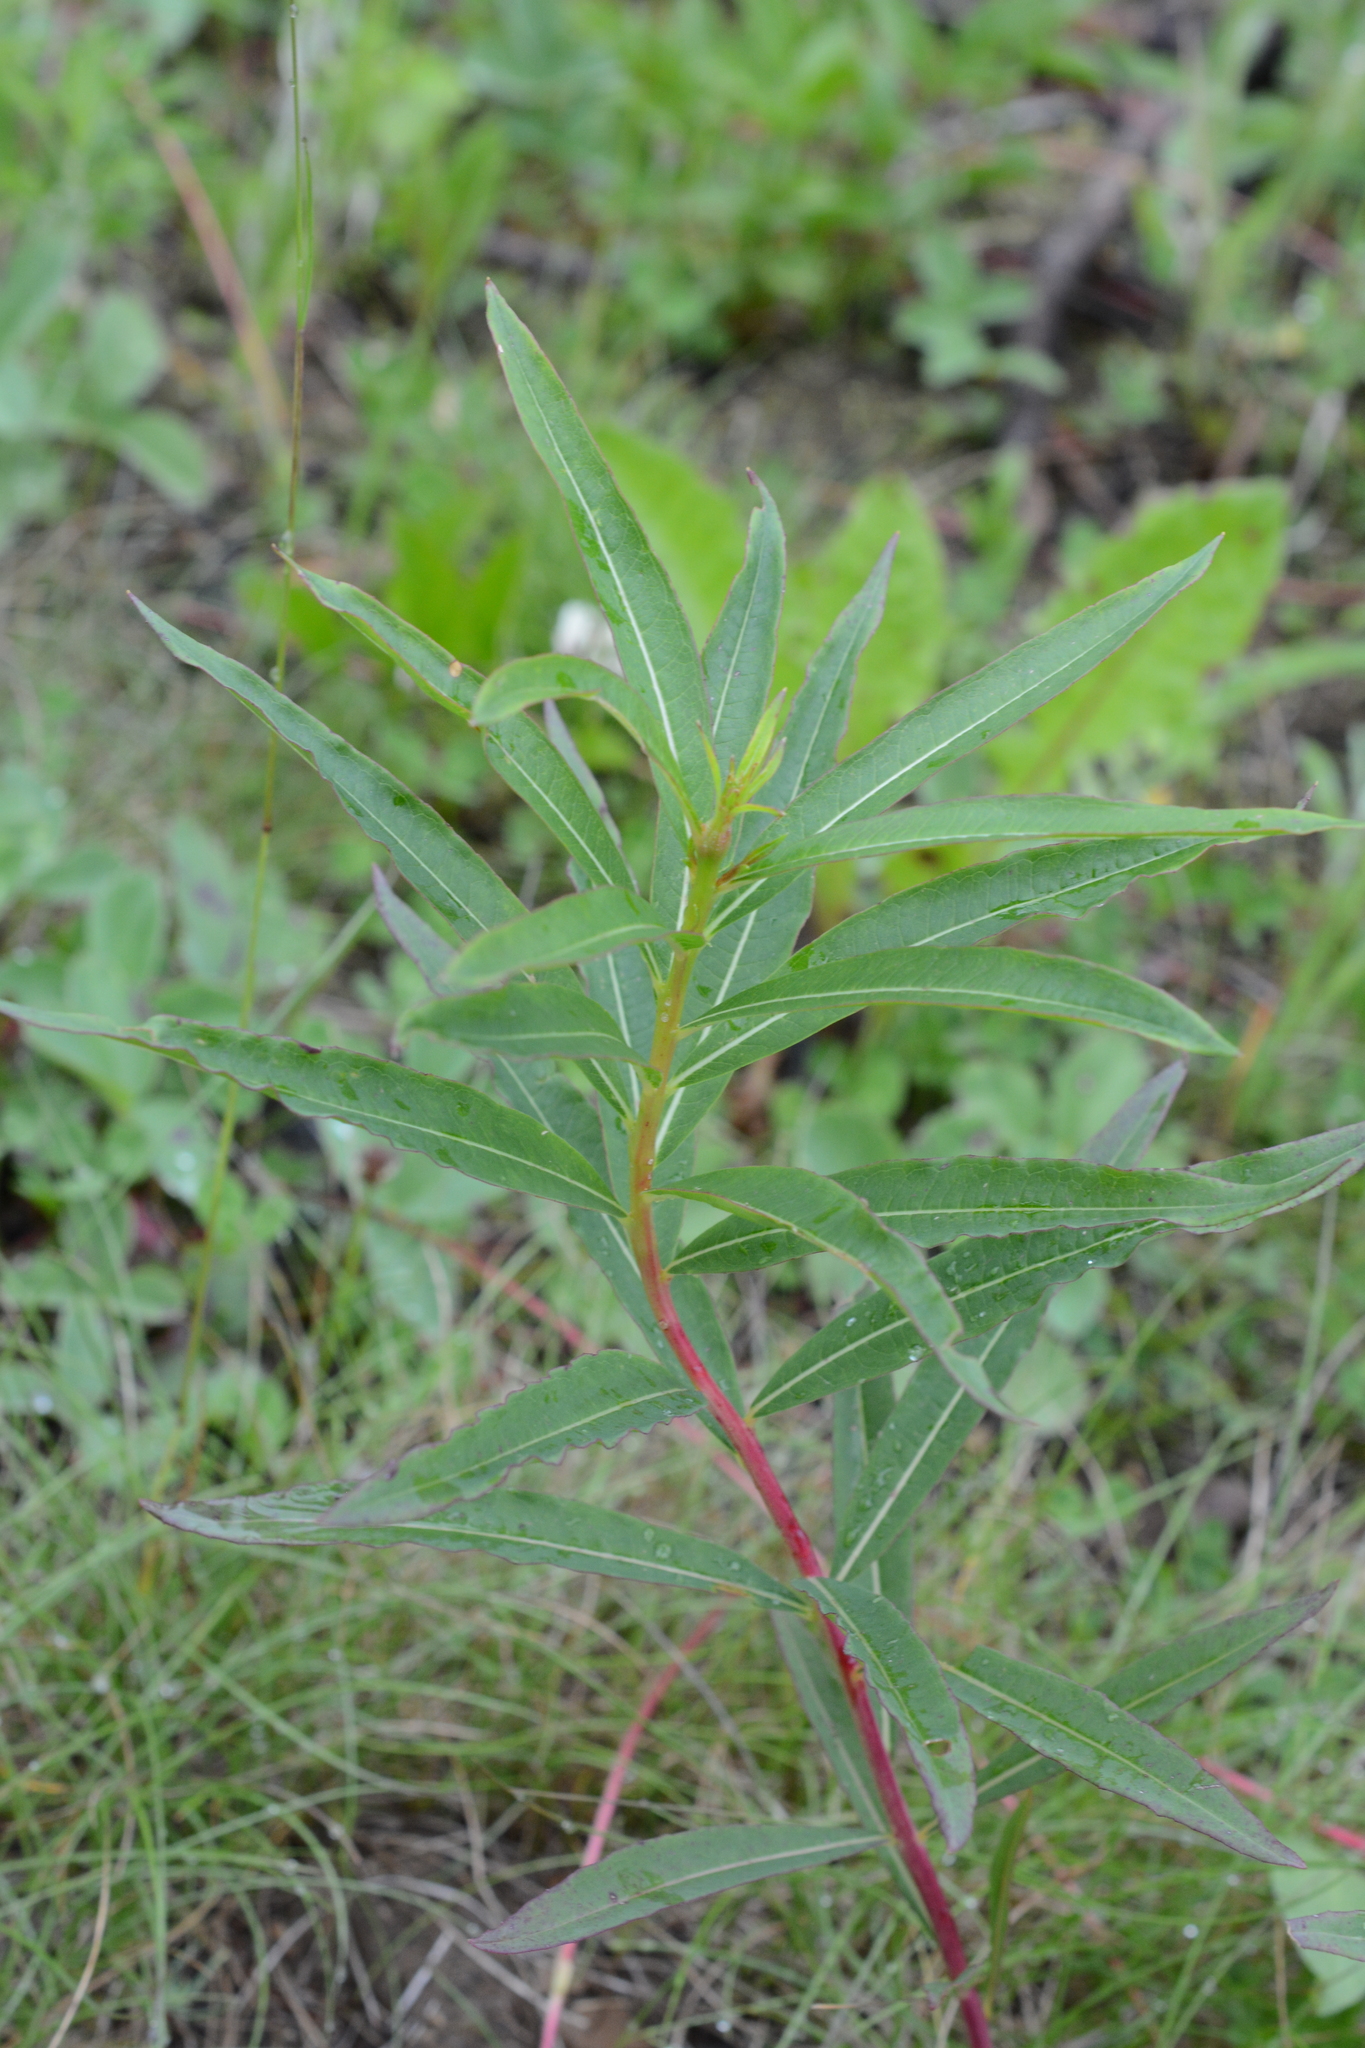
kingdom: Plantae
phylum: Tracheophyta
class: Magnoliopsida
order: Myrtales
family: Onagraceae
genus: Chamaenerion
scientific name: Chamaenerion angustifolium
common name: Fireweed
